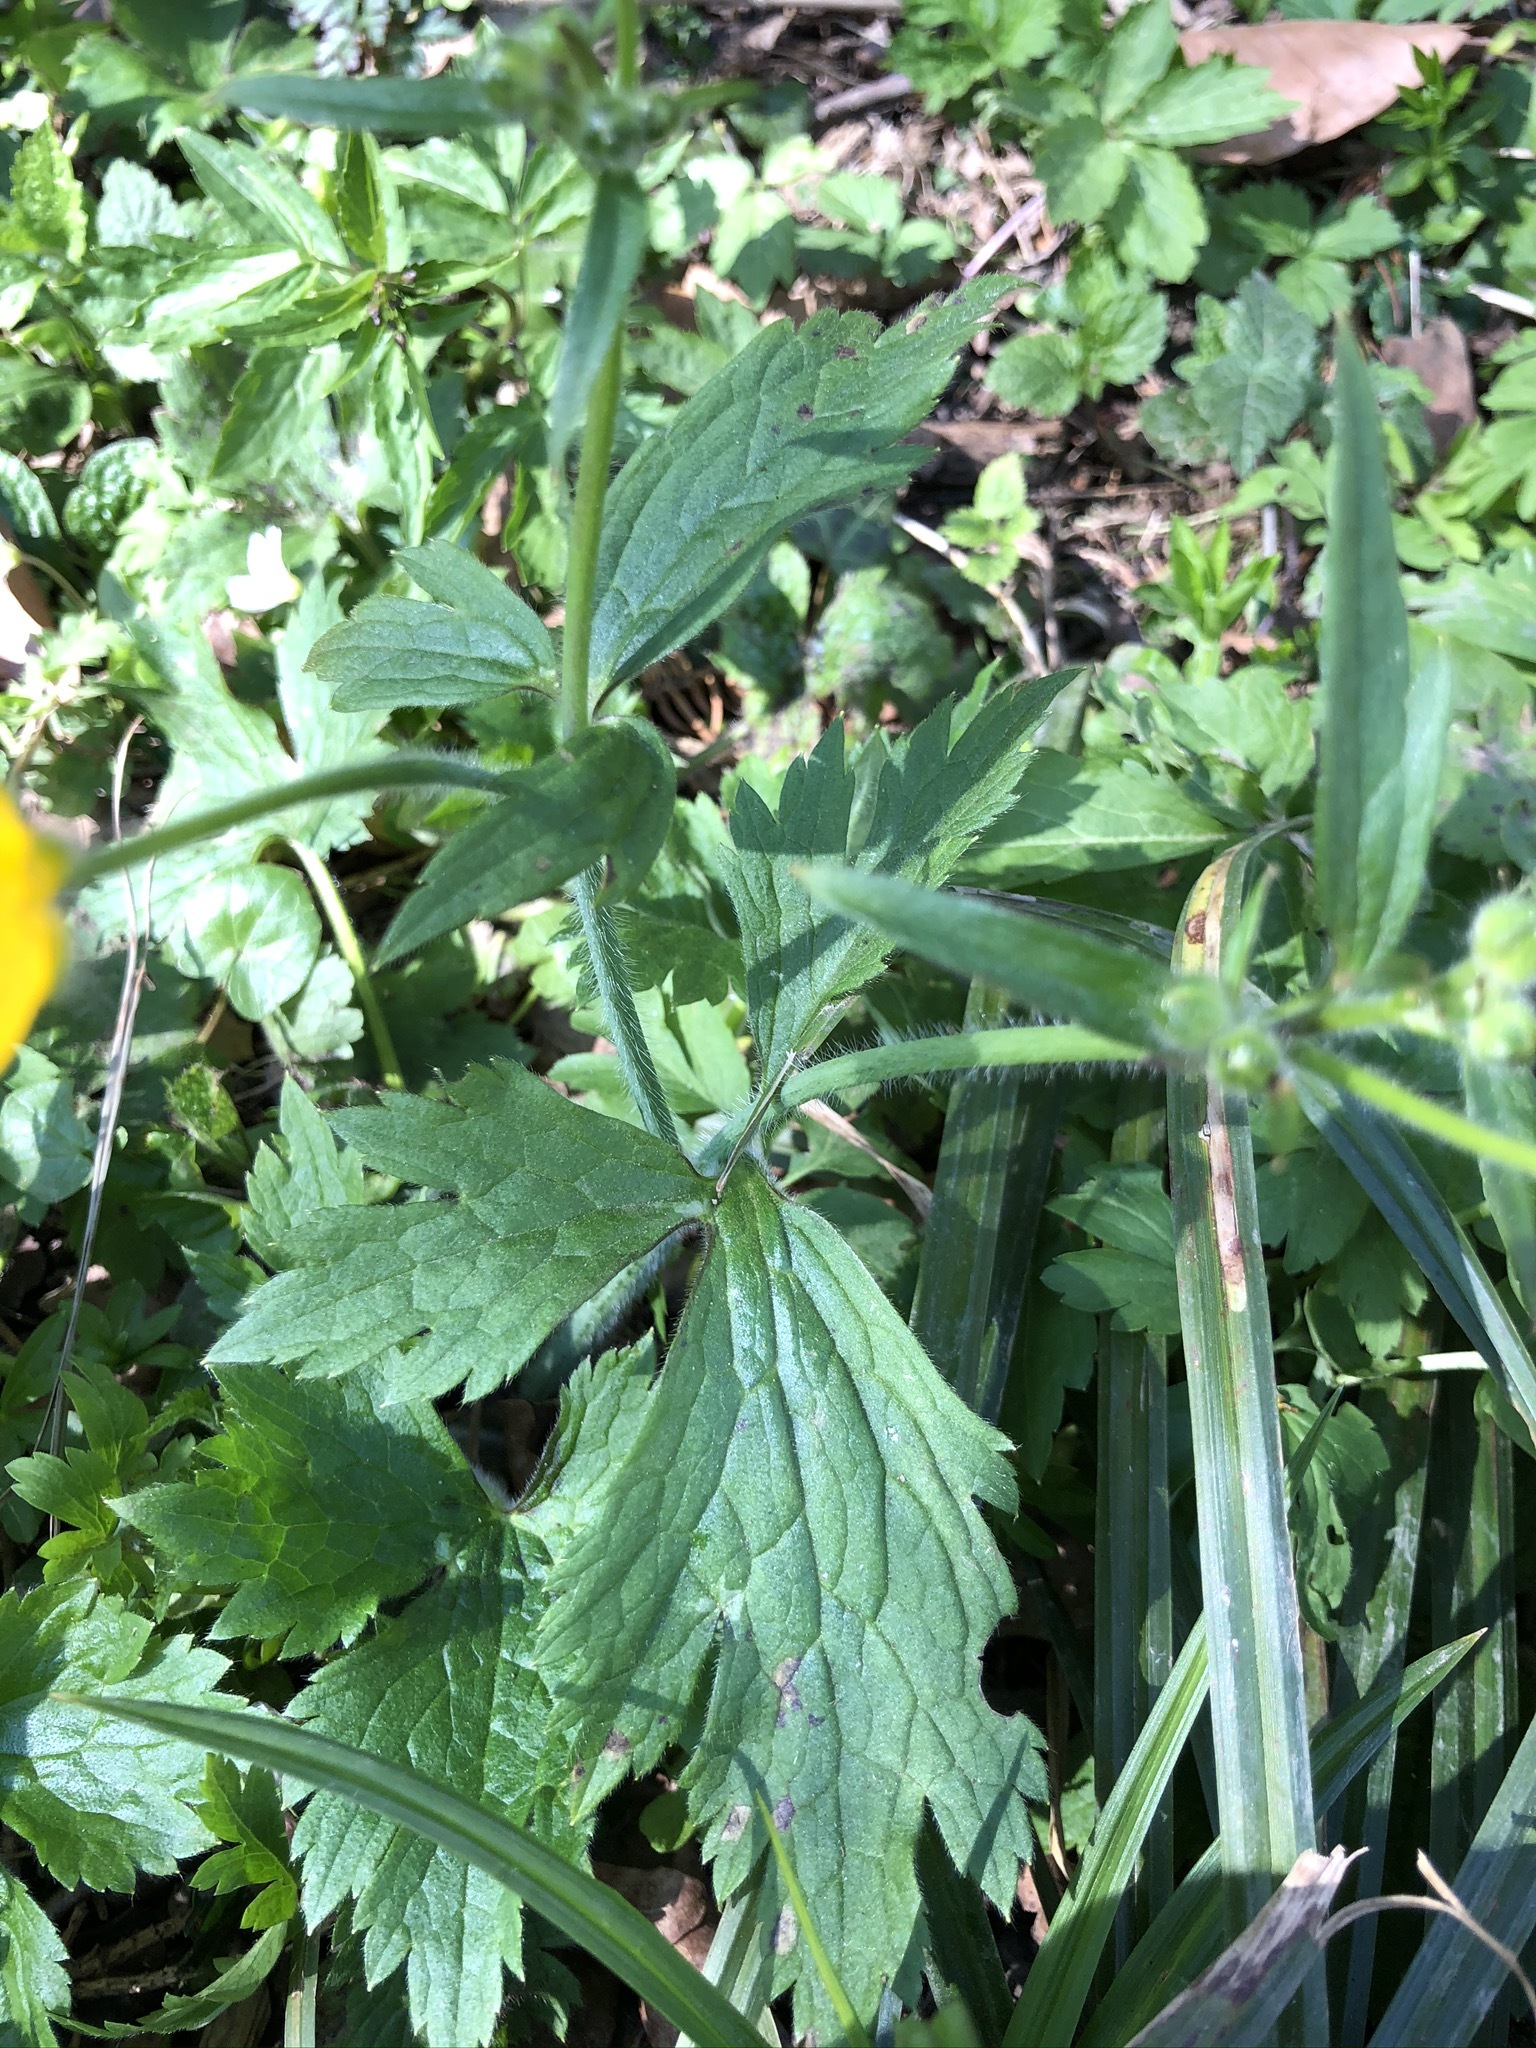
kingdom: Plantae
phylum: Tracheophyta
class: Magnoliopsida
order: Ranunculales
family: Ranunculaceae
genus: Ranunculus
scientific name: Ranunculus lanuginosus
